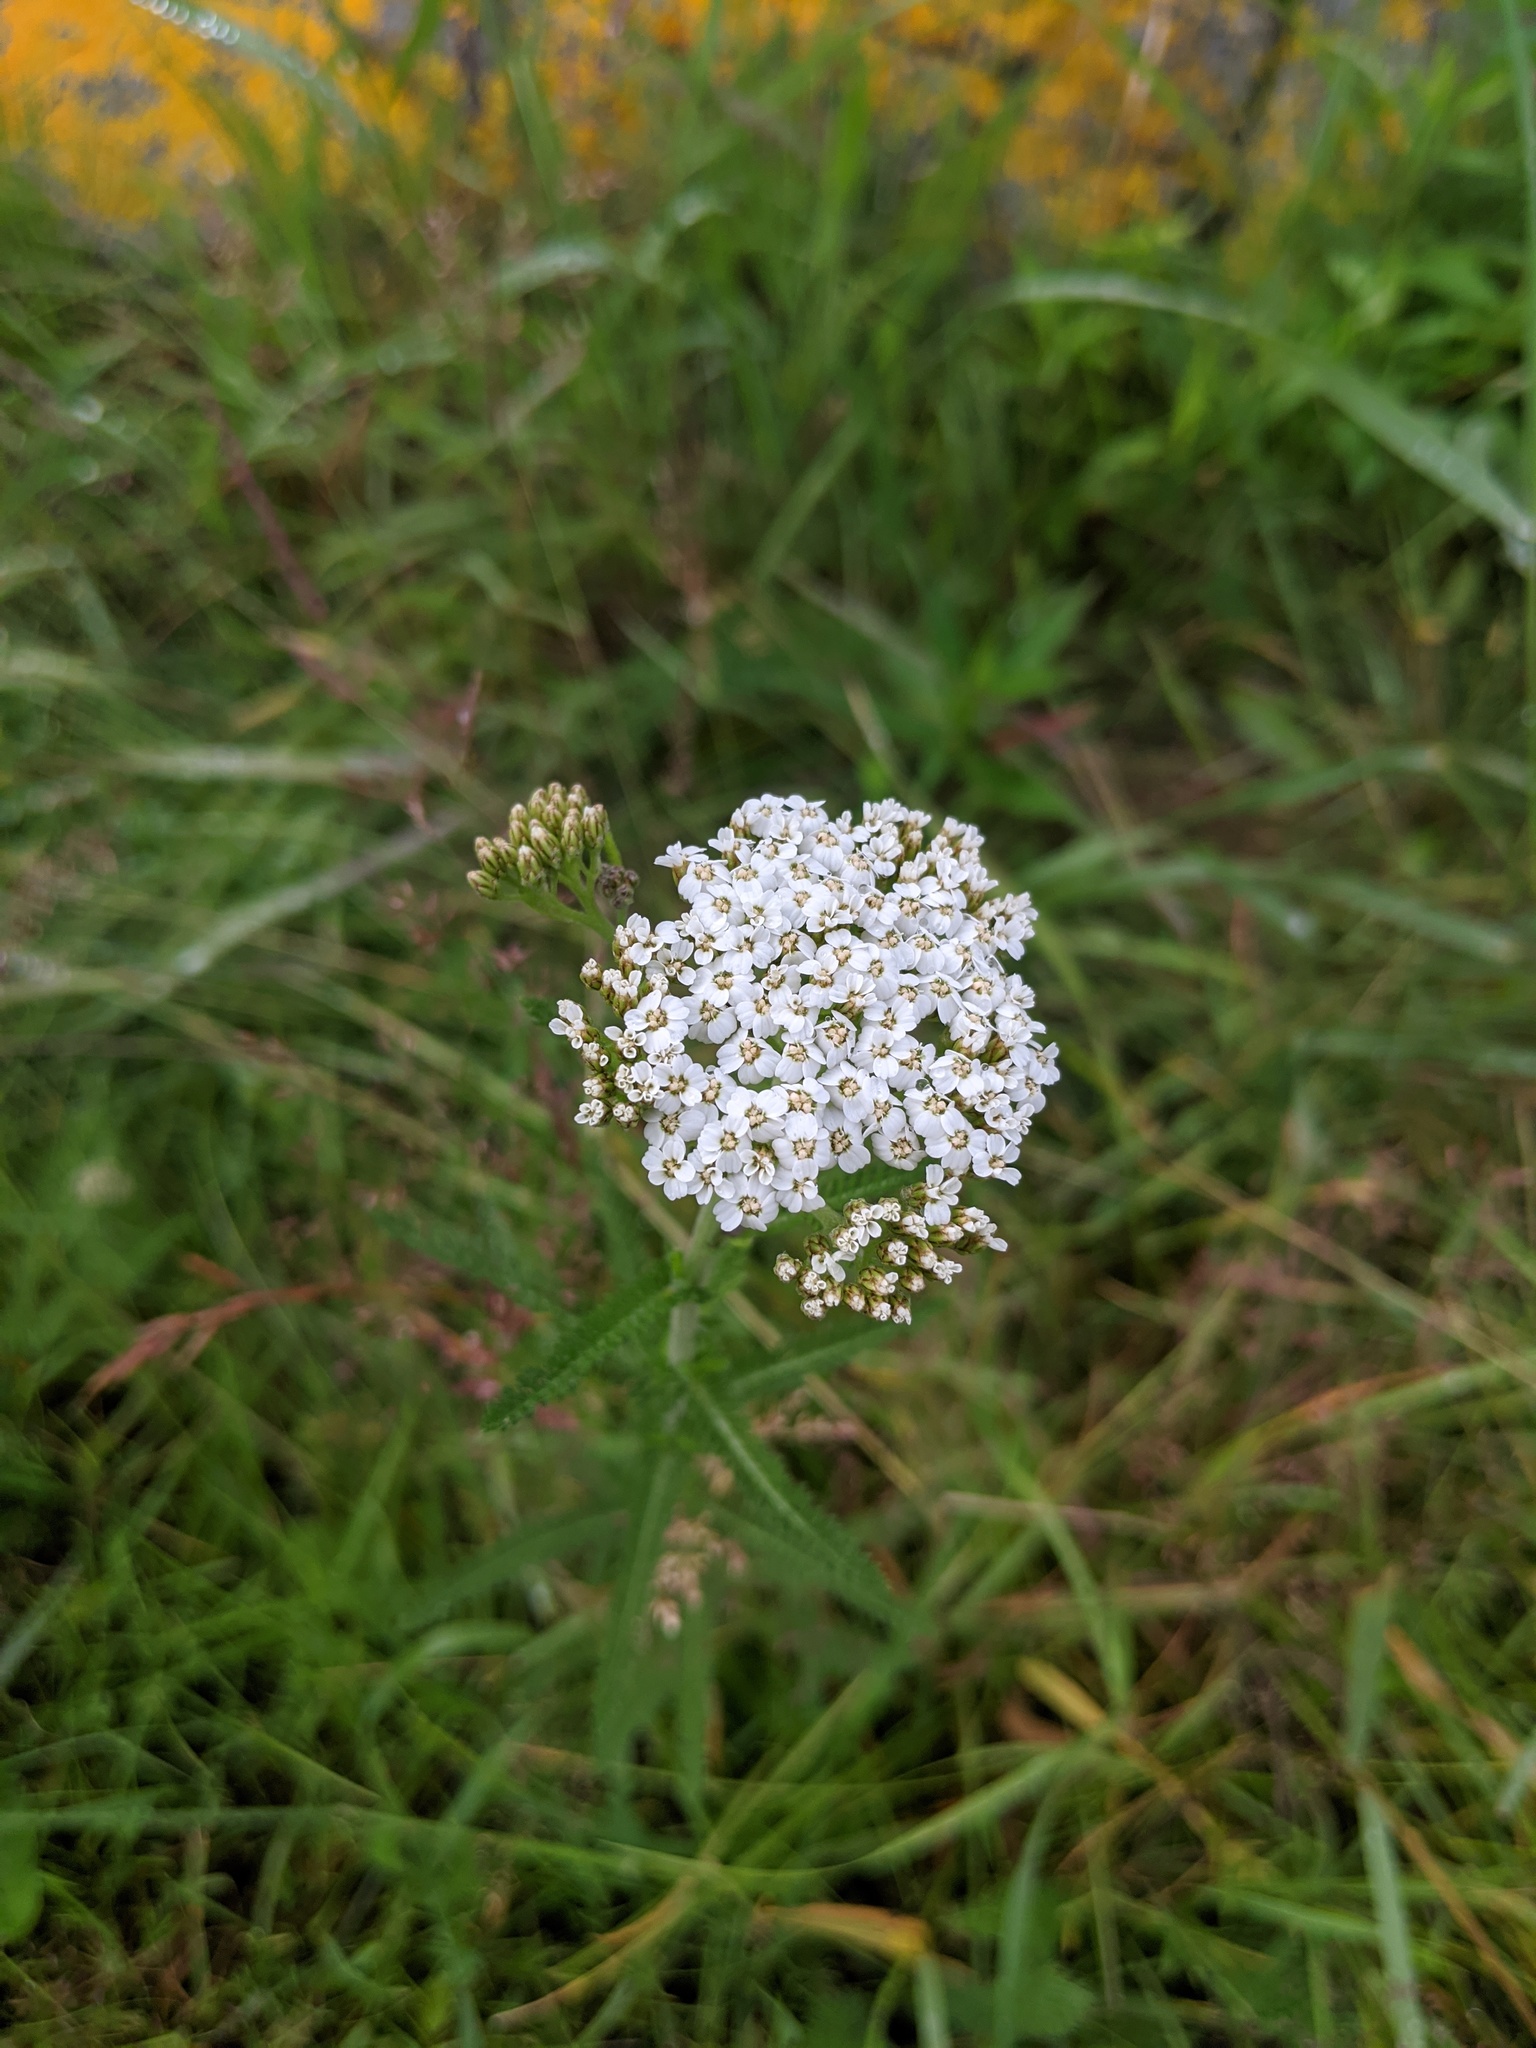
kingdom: Plantae
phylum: Tracheophyta
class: Magnoliopsida
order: Asterales
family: Asteraceae
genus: Achillea
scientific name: Achillea millefolium
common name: Yarrow
